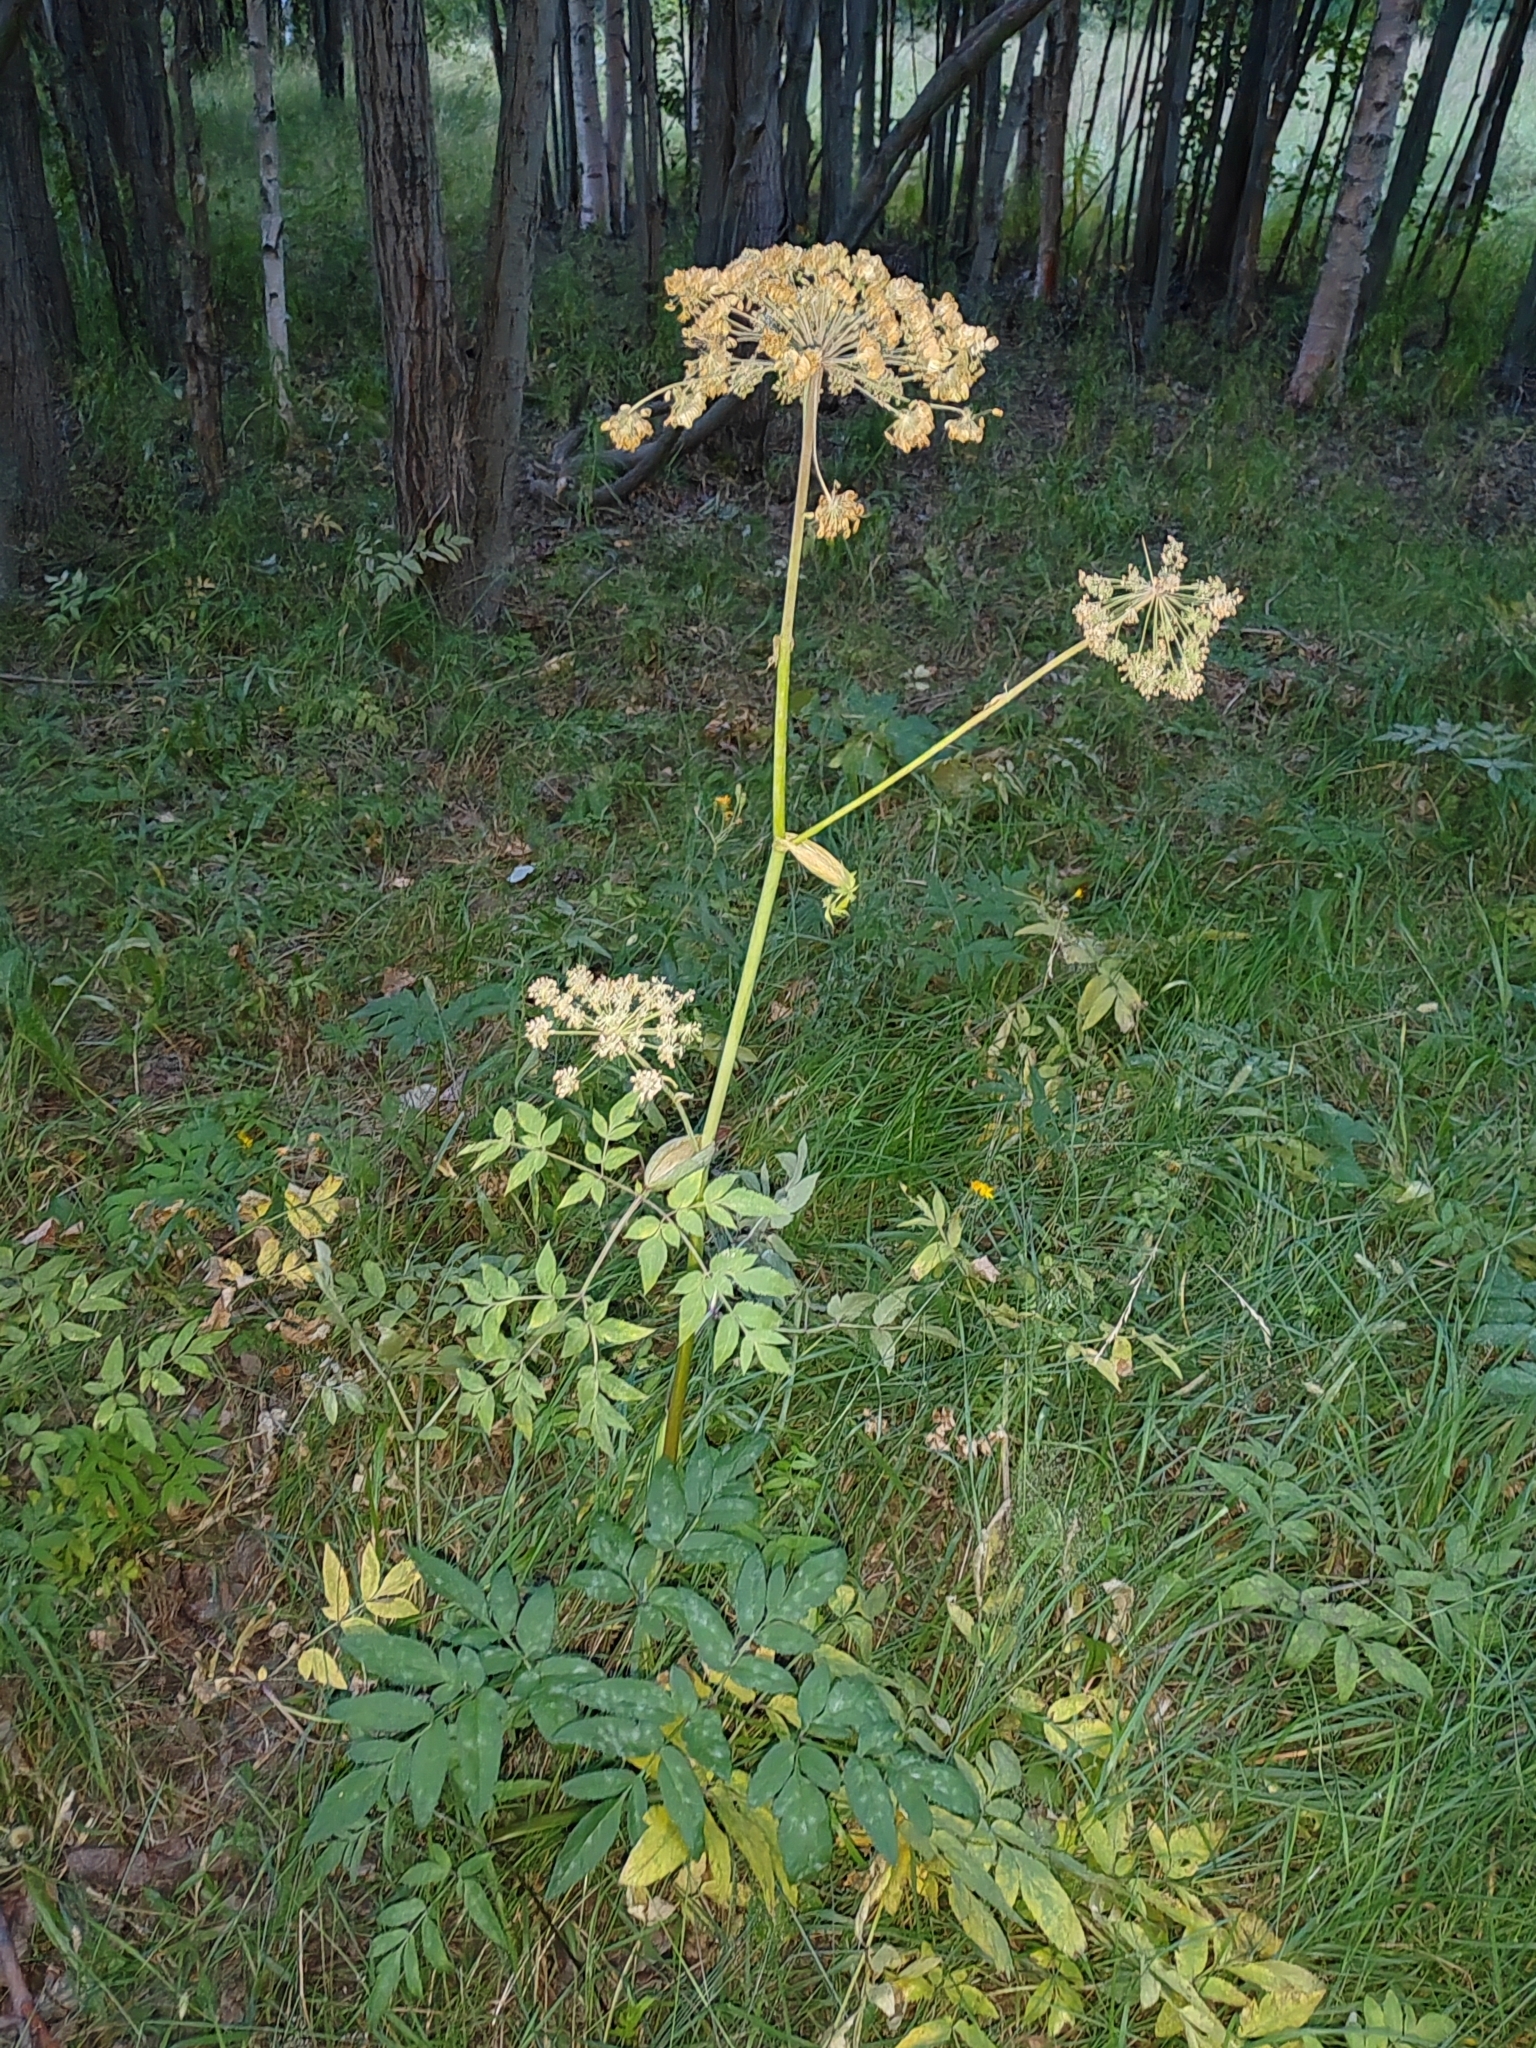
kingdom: Plantae
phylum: Tracheophyta
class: Magnoliopsida
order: Apiales
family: Apiaceae
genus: Angelica
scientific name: Angelica sylvestris
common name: Wild angelica
